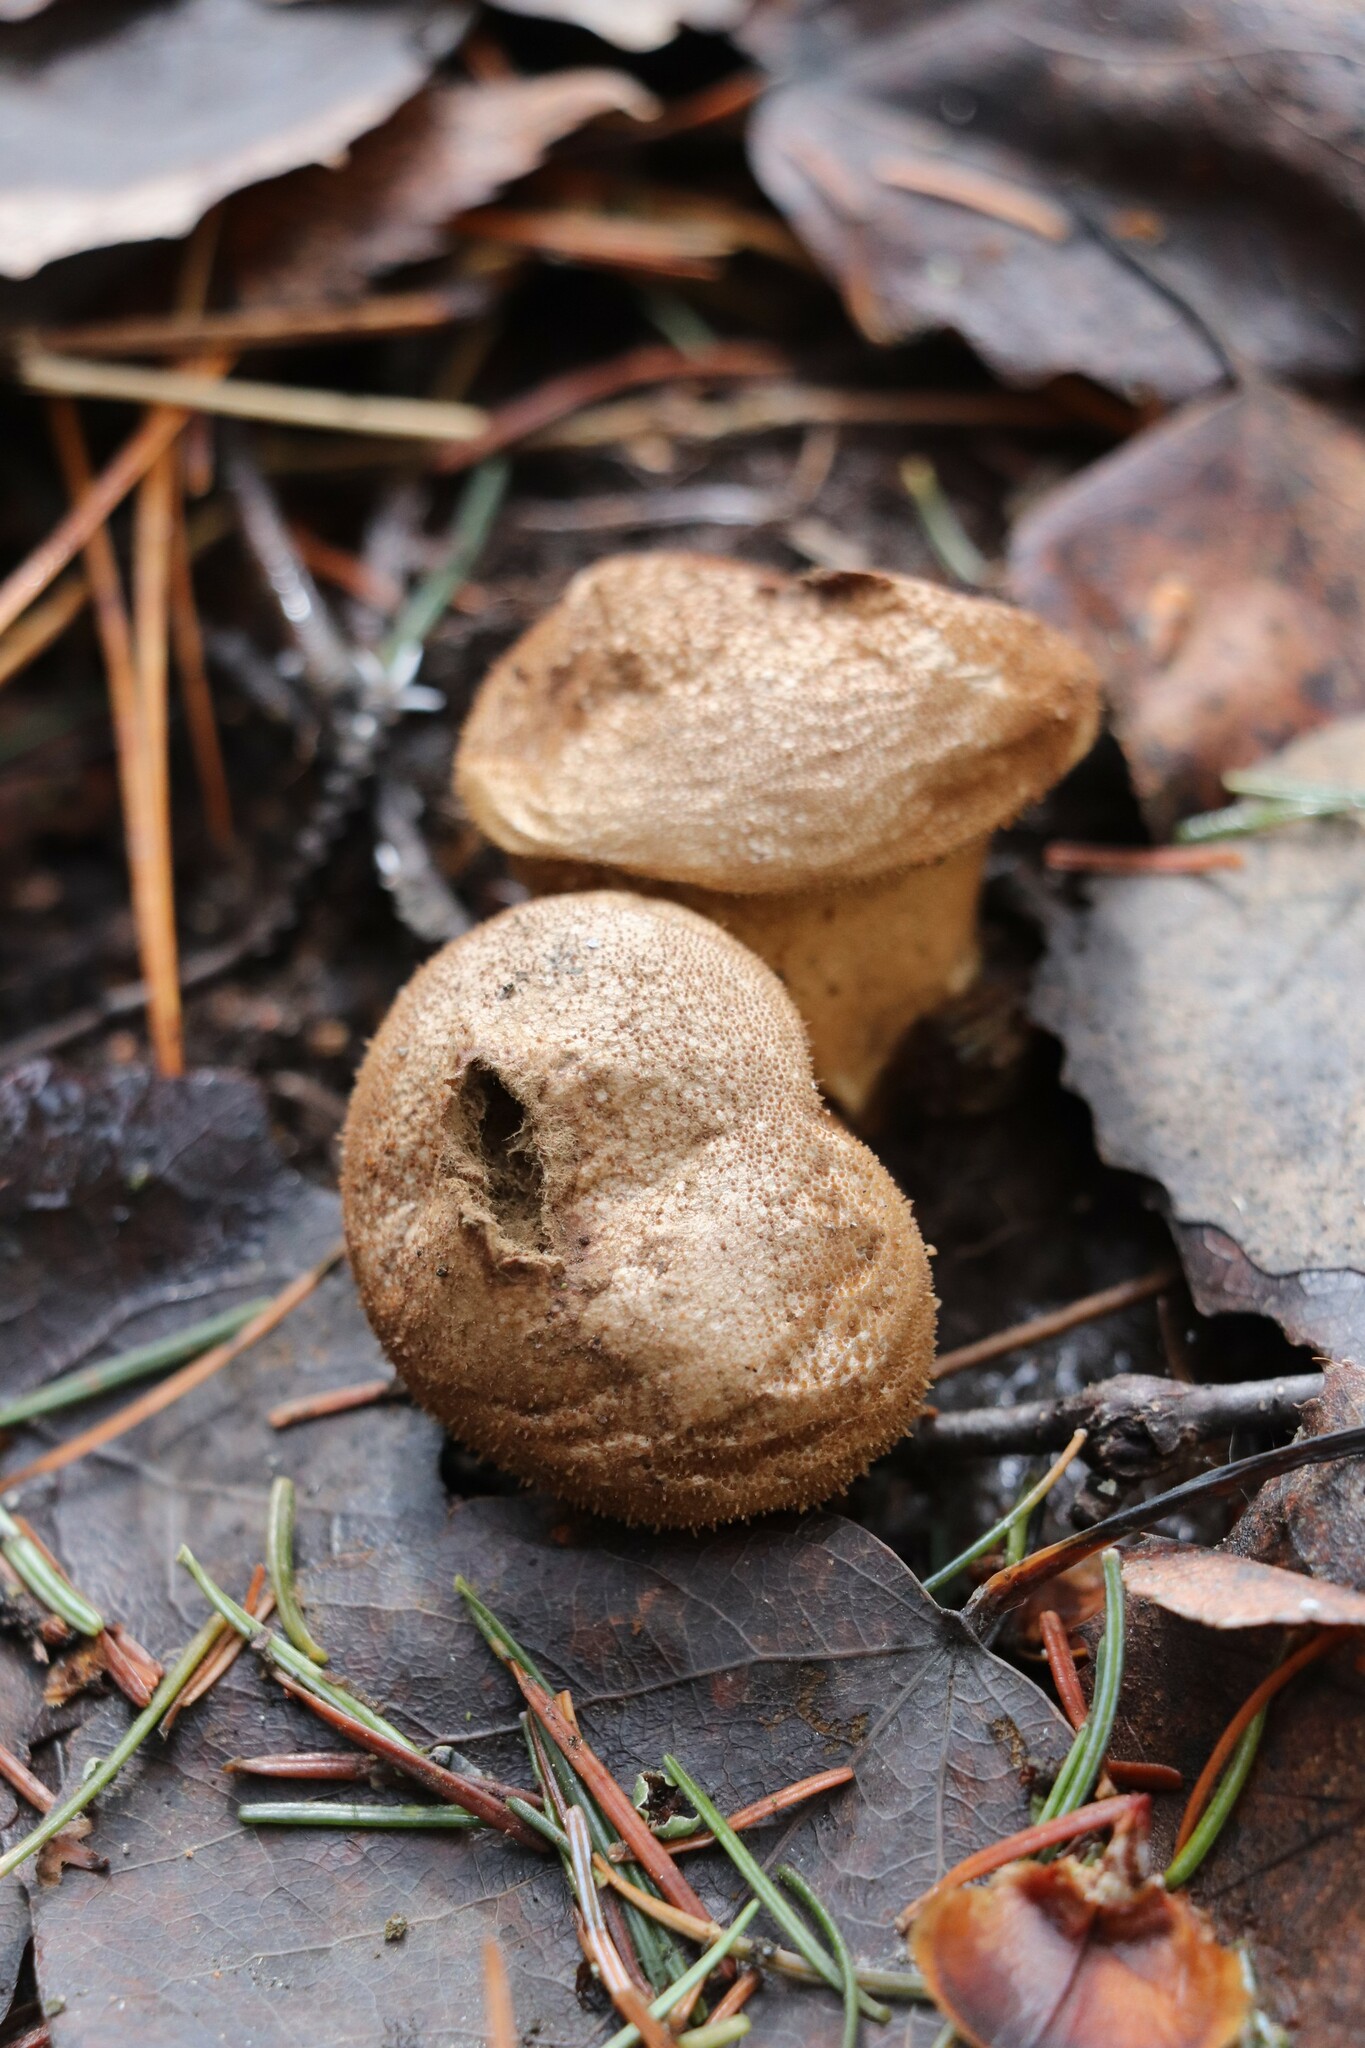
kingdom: Fungi
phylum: Basidiomycota
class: Agaricomycetes
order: Agaricales
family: Lycoperdaceae
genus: Lycoperdon
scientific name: Lycoperdon perlatum
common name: Common puffball
